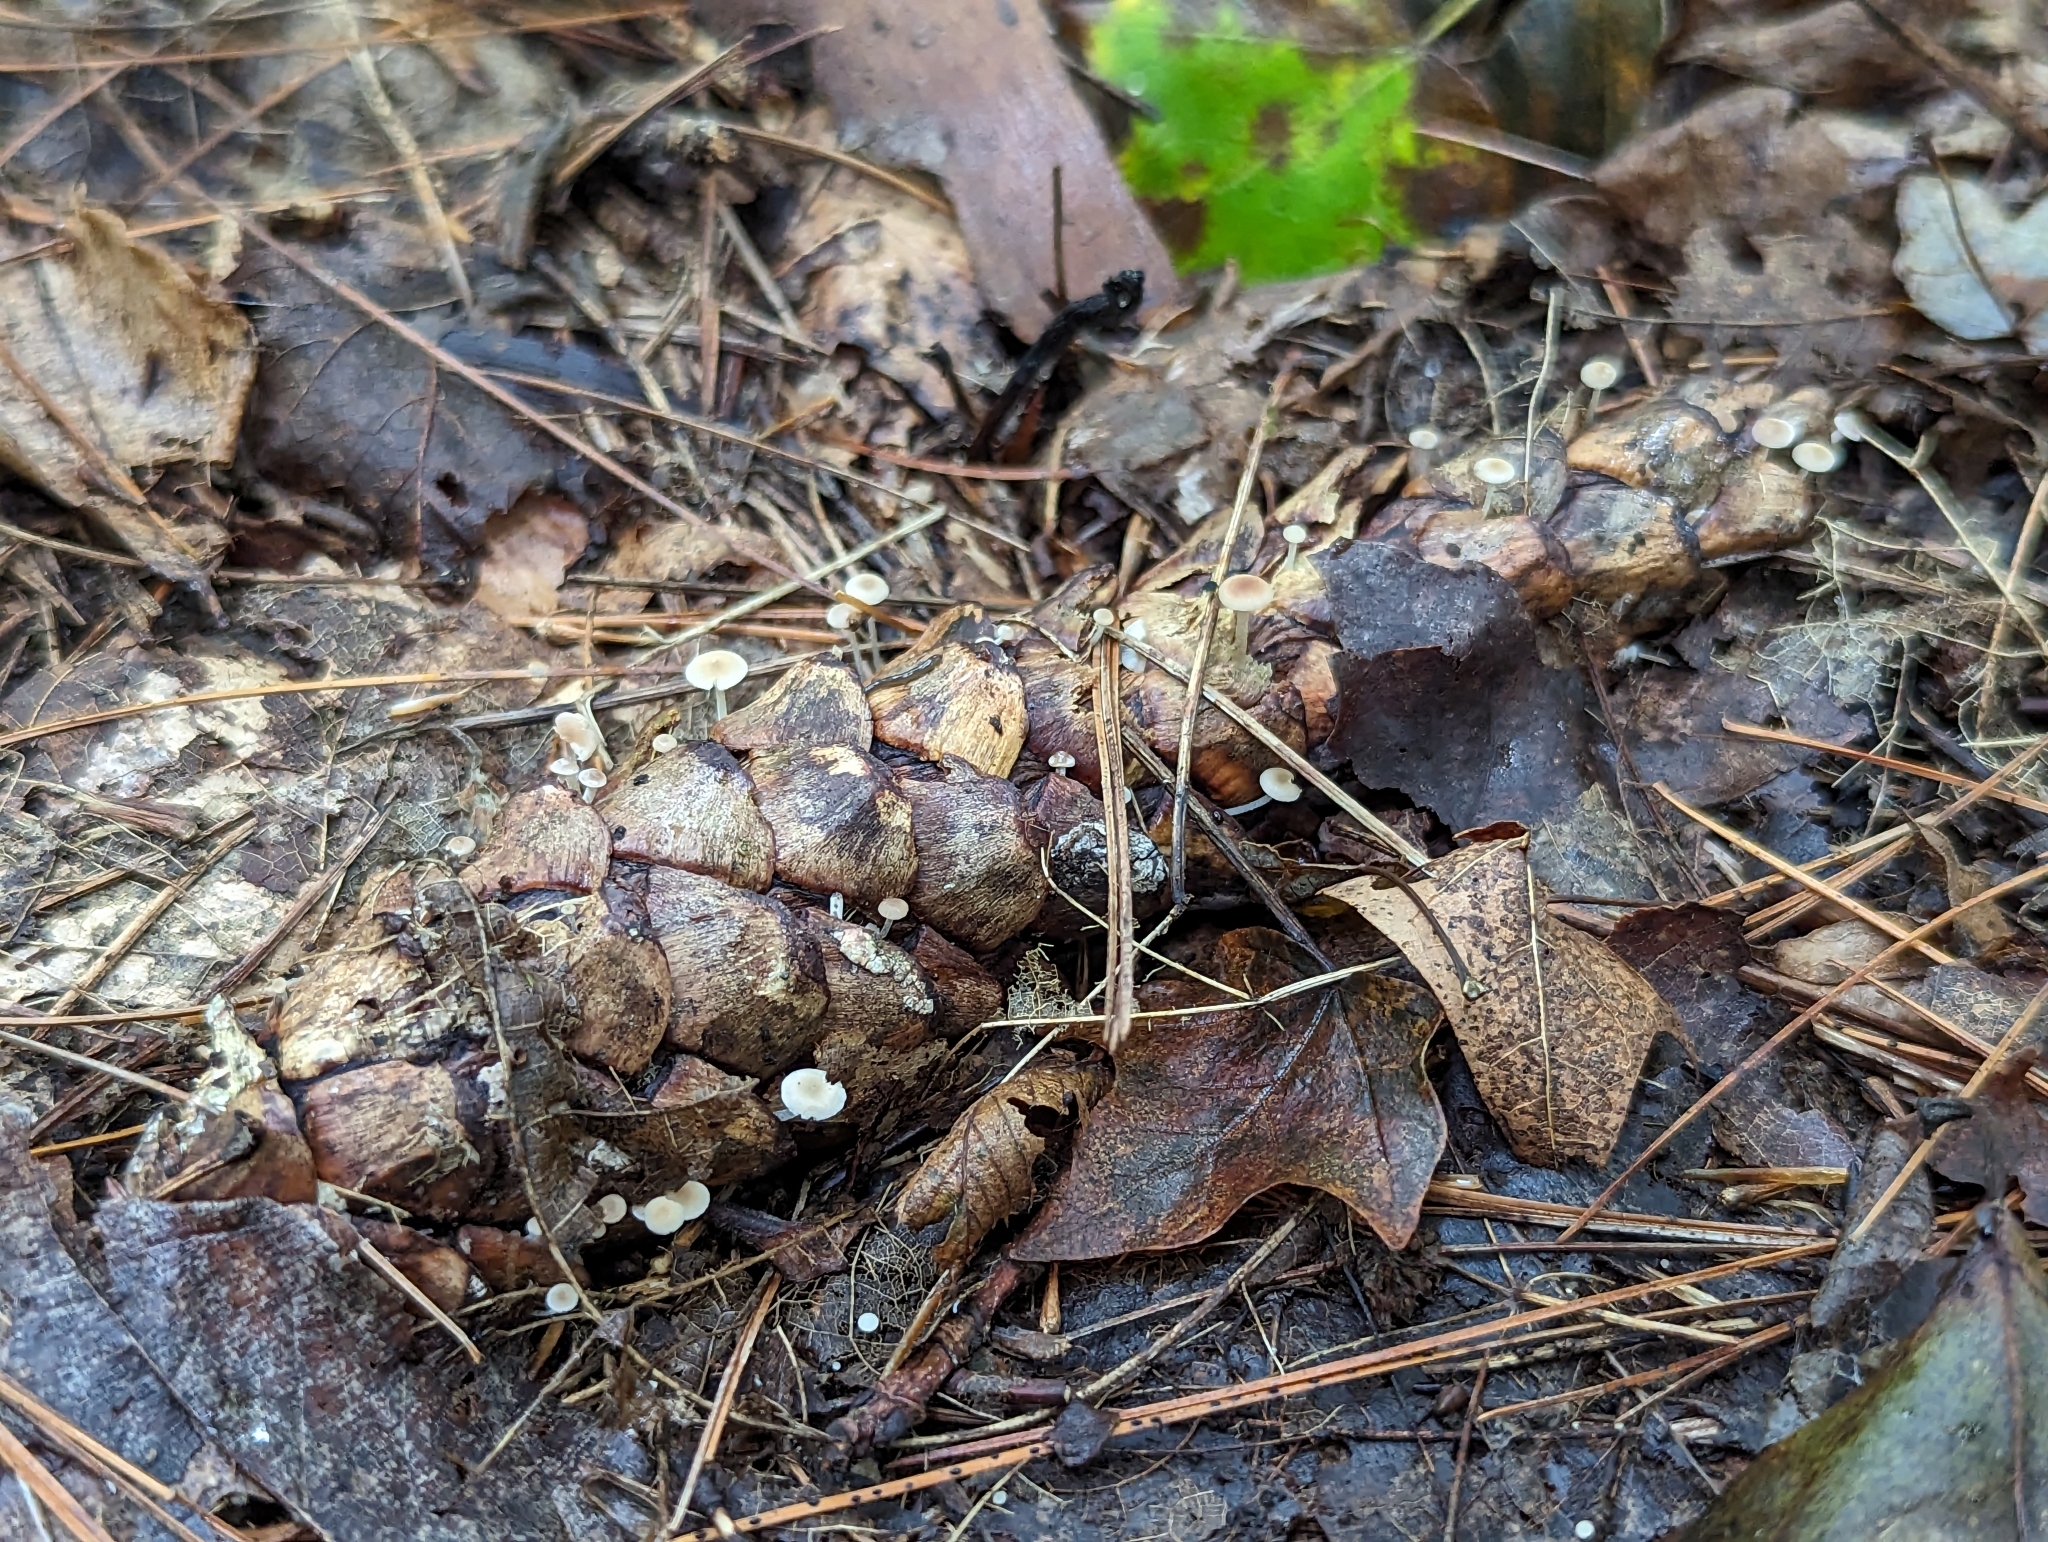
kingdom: Fungi
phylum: Basidiomycota
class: Agaricomycetes
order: Agaricales
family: Marasmiaceae
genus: Baeospora
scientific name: Baeospora myosura
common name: Conifercone cap
